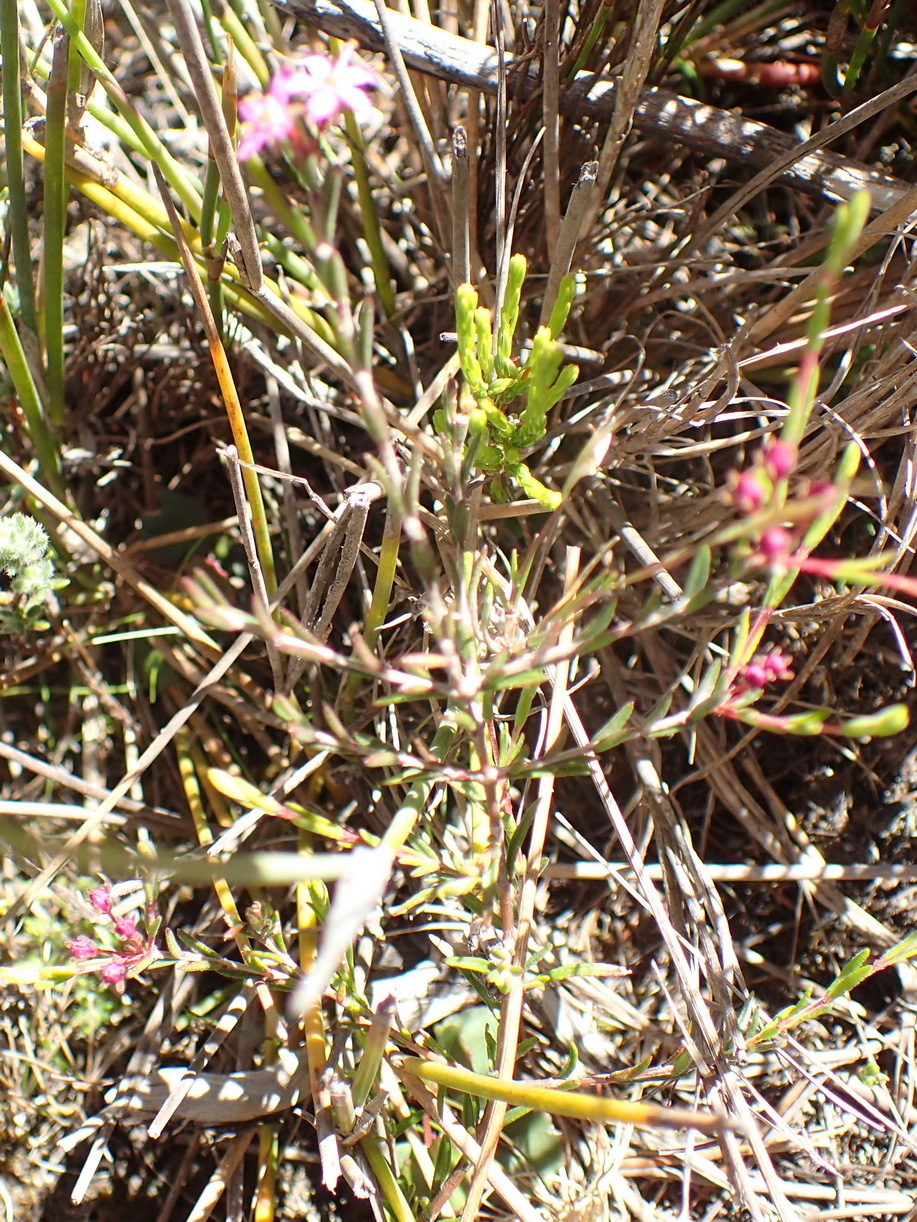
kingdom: Plantae
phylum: Tracheophyta
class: Magnoliopsida
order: Sapindales
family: Rutaceae
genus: Agathosma
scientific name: Agathosma purpurea
